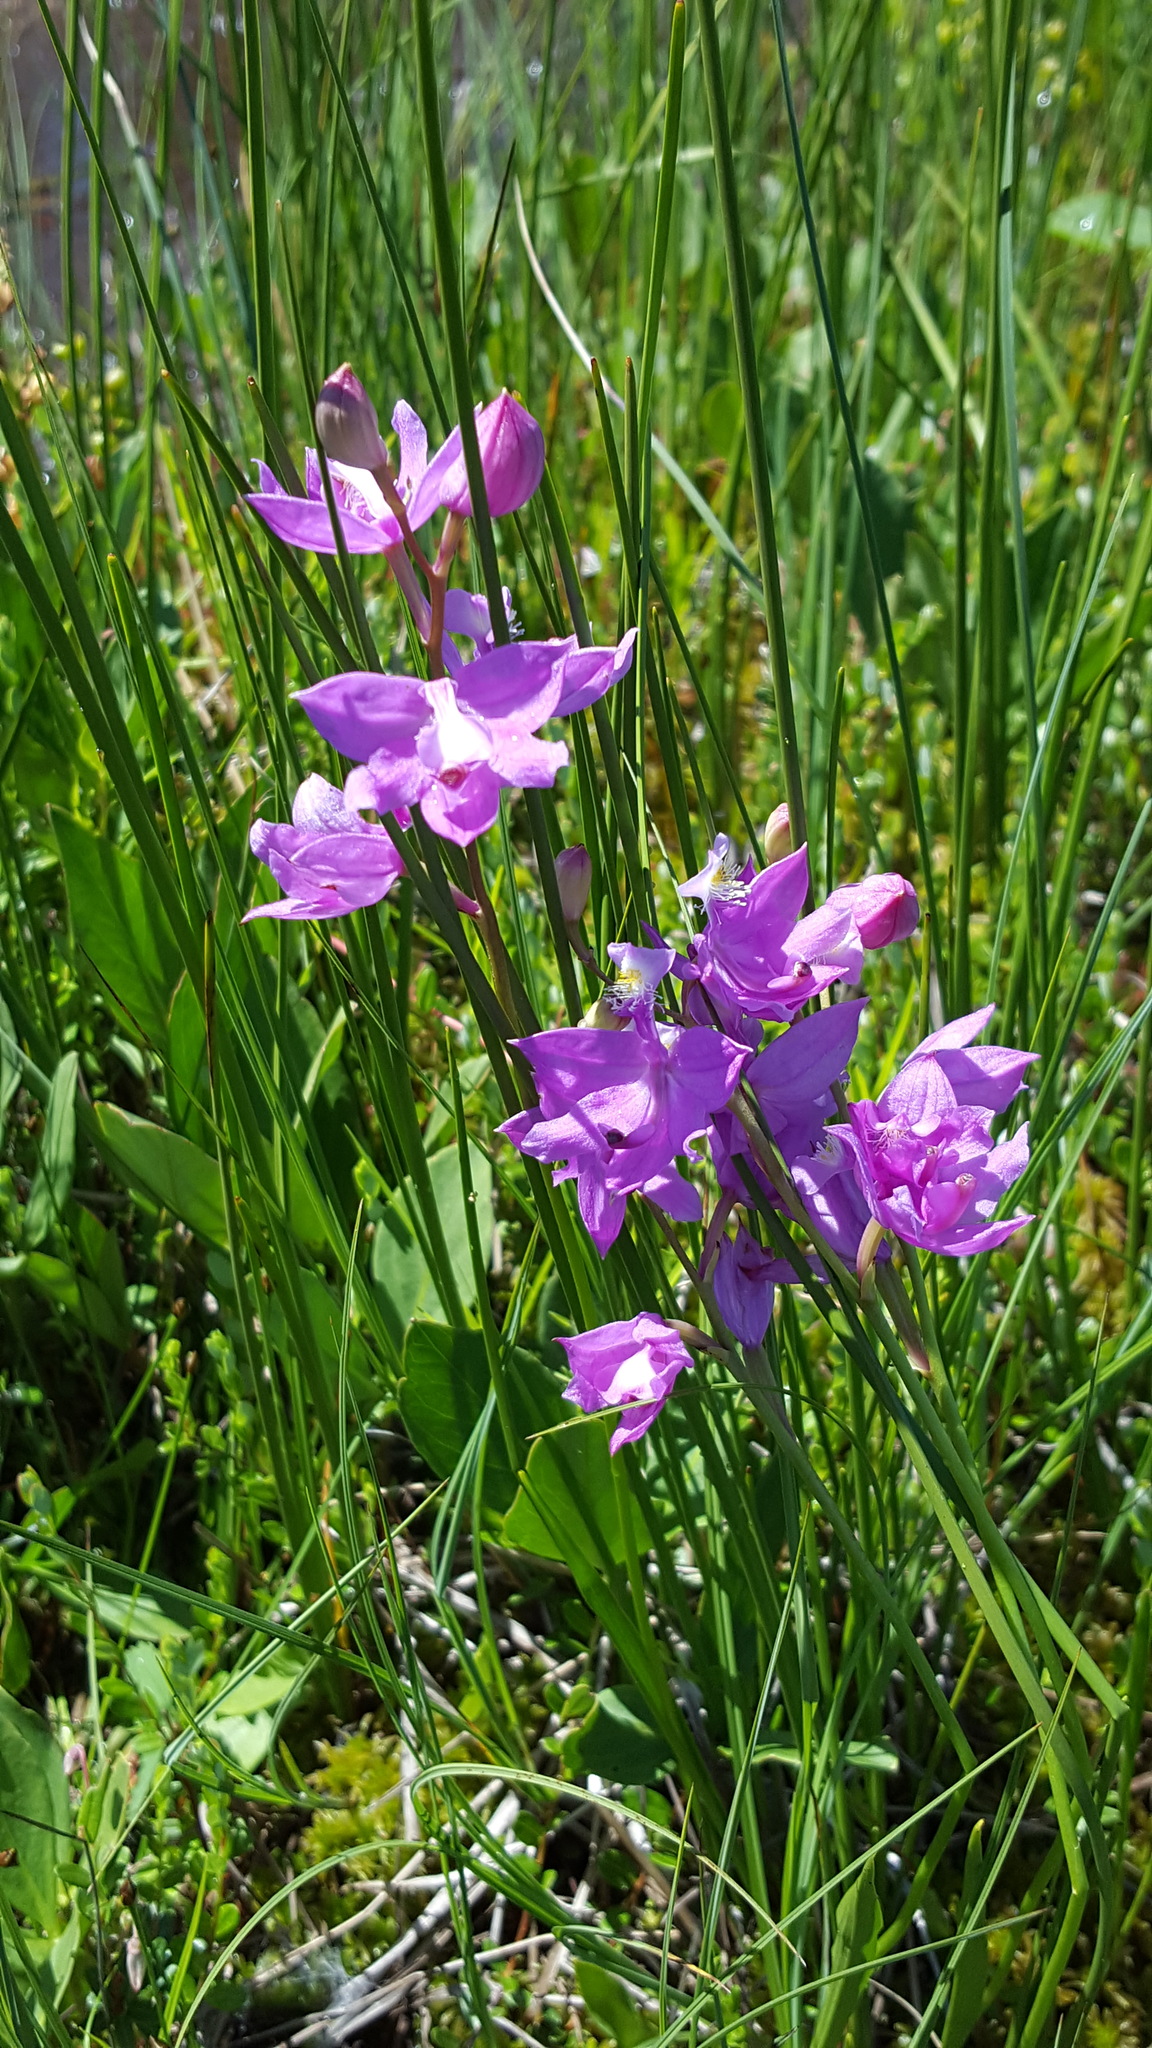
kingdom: Plantae
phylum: Tracheophyta
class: Liliopsida
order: Asparagales
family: Orchidaceae
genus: Calopogon
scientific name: Calopogon tuberosus
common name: Grass-pink
